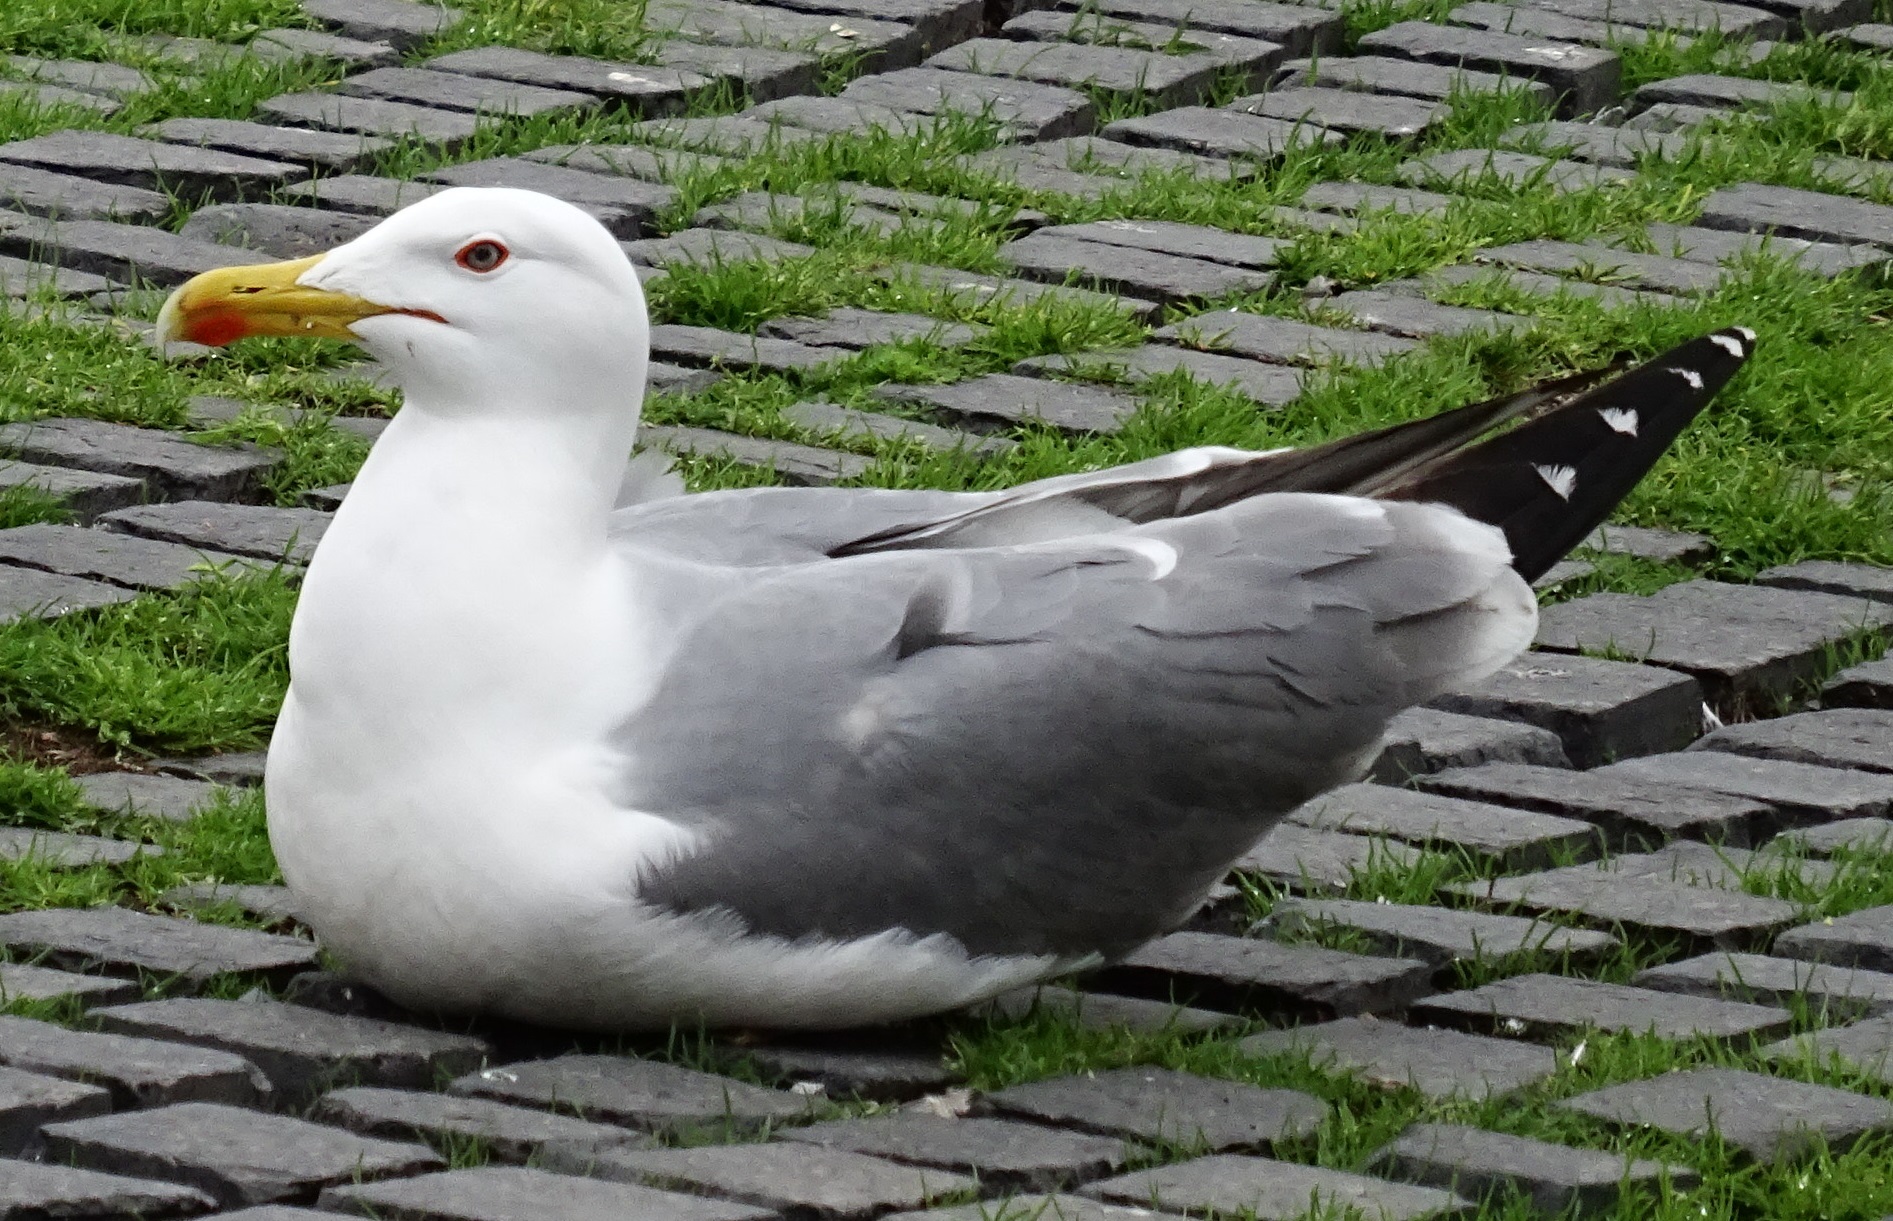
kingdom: Animalia
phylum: Chordata
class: Aves
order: Charadriiformes
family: Laridae
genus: Larus
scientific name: Larus michahellis
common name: Yellow-legged gull
